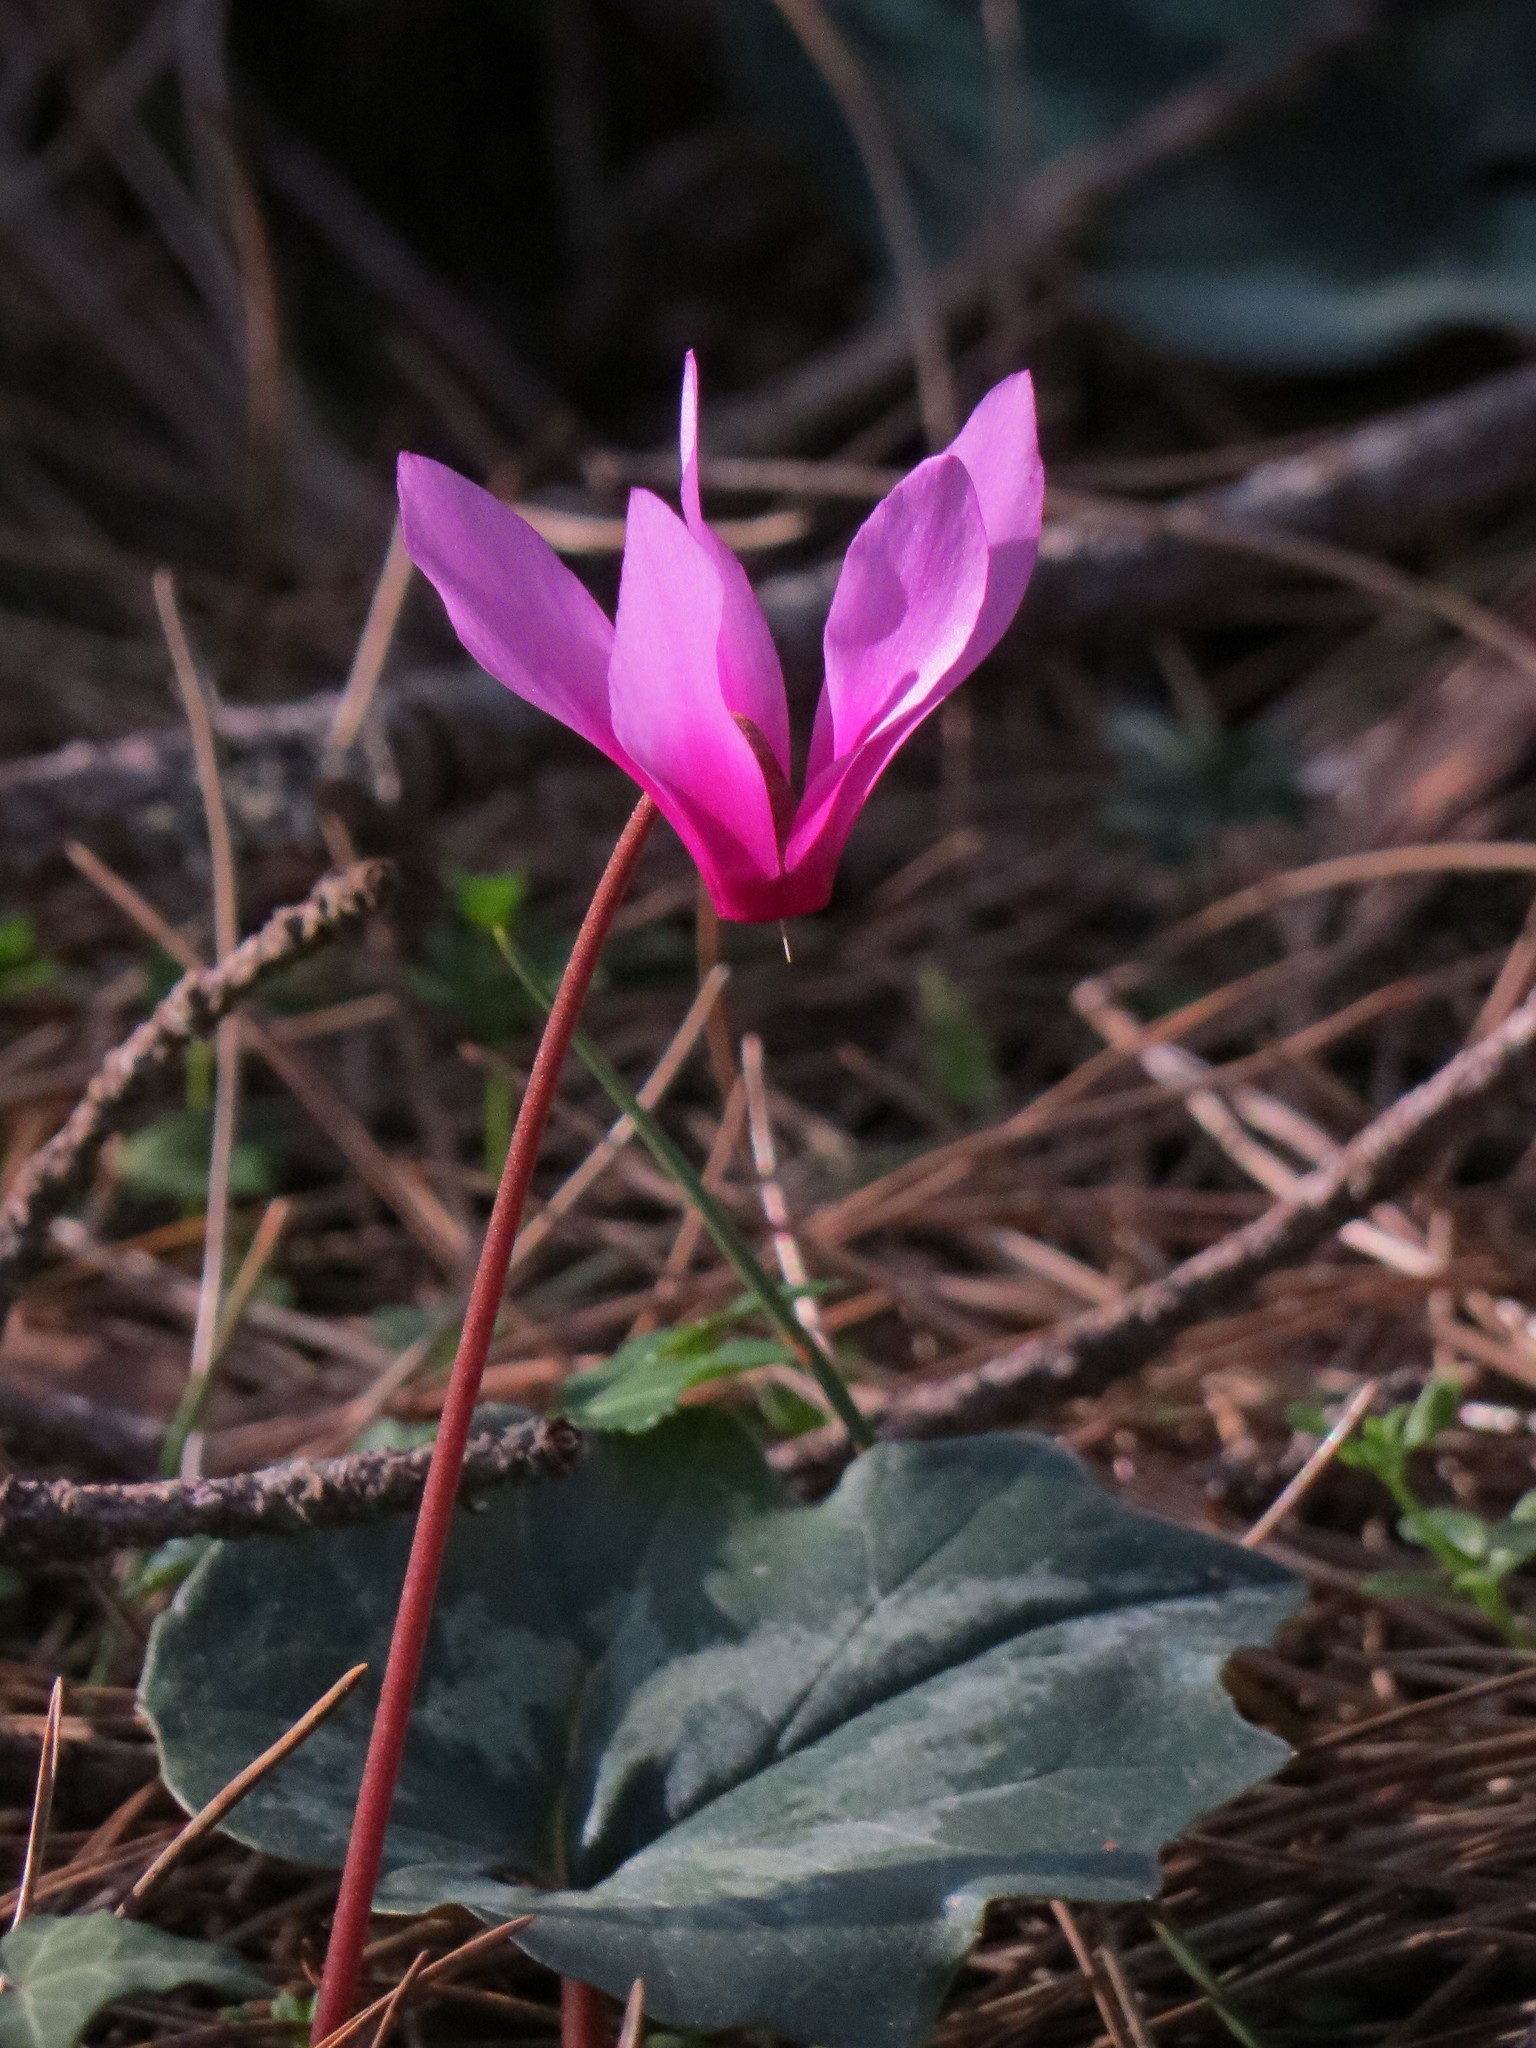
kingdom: Plantae
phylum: Tracheophyta
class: Magnoliopsida
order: Ericales
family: Primulaceae
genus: Cyclamen
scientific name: Cyclamen repandum
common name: Spring sowbread
